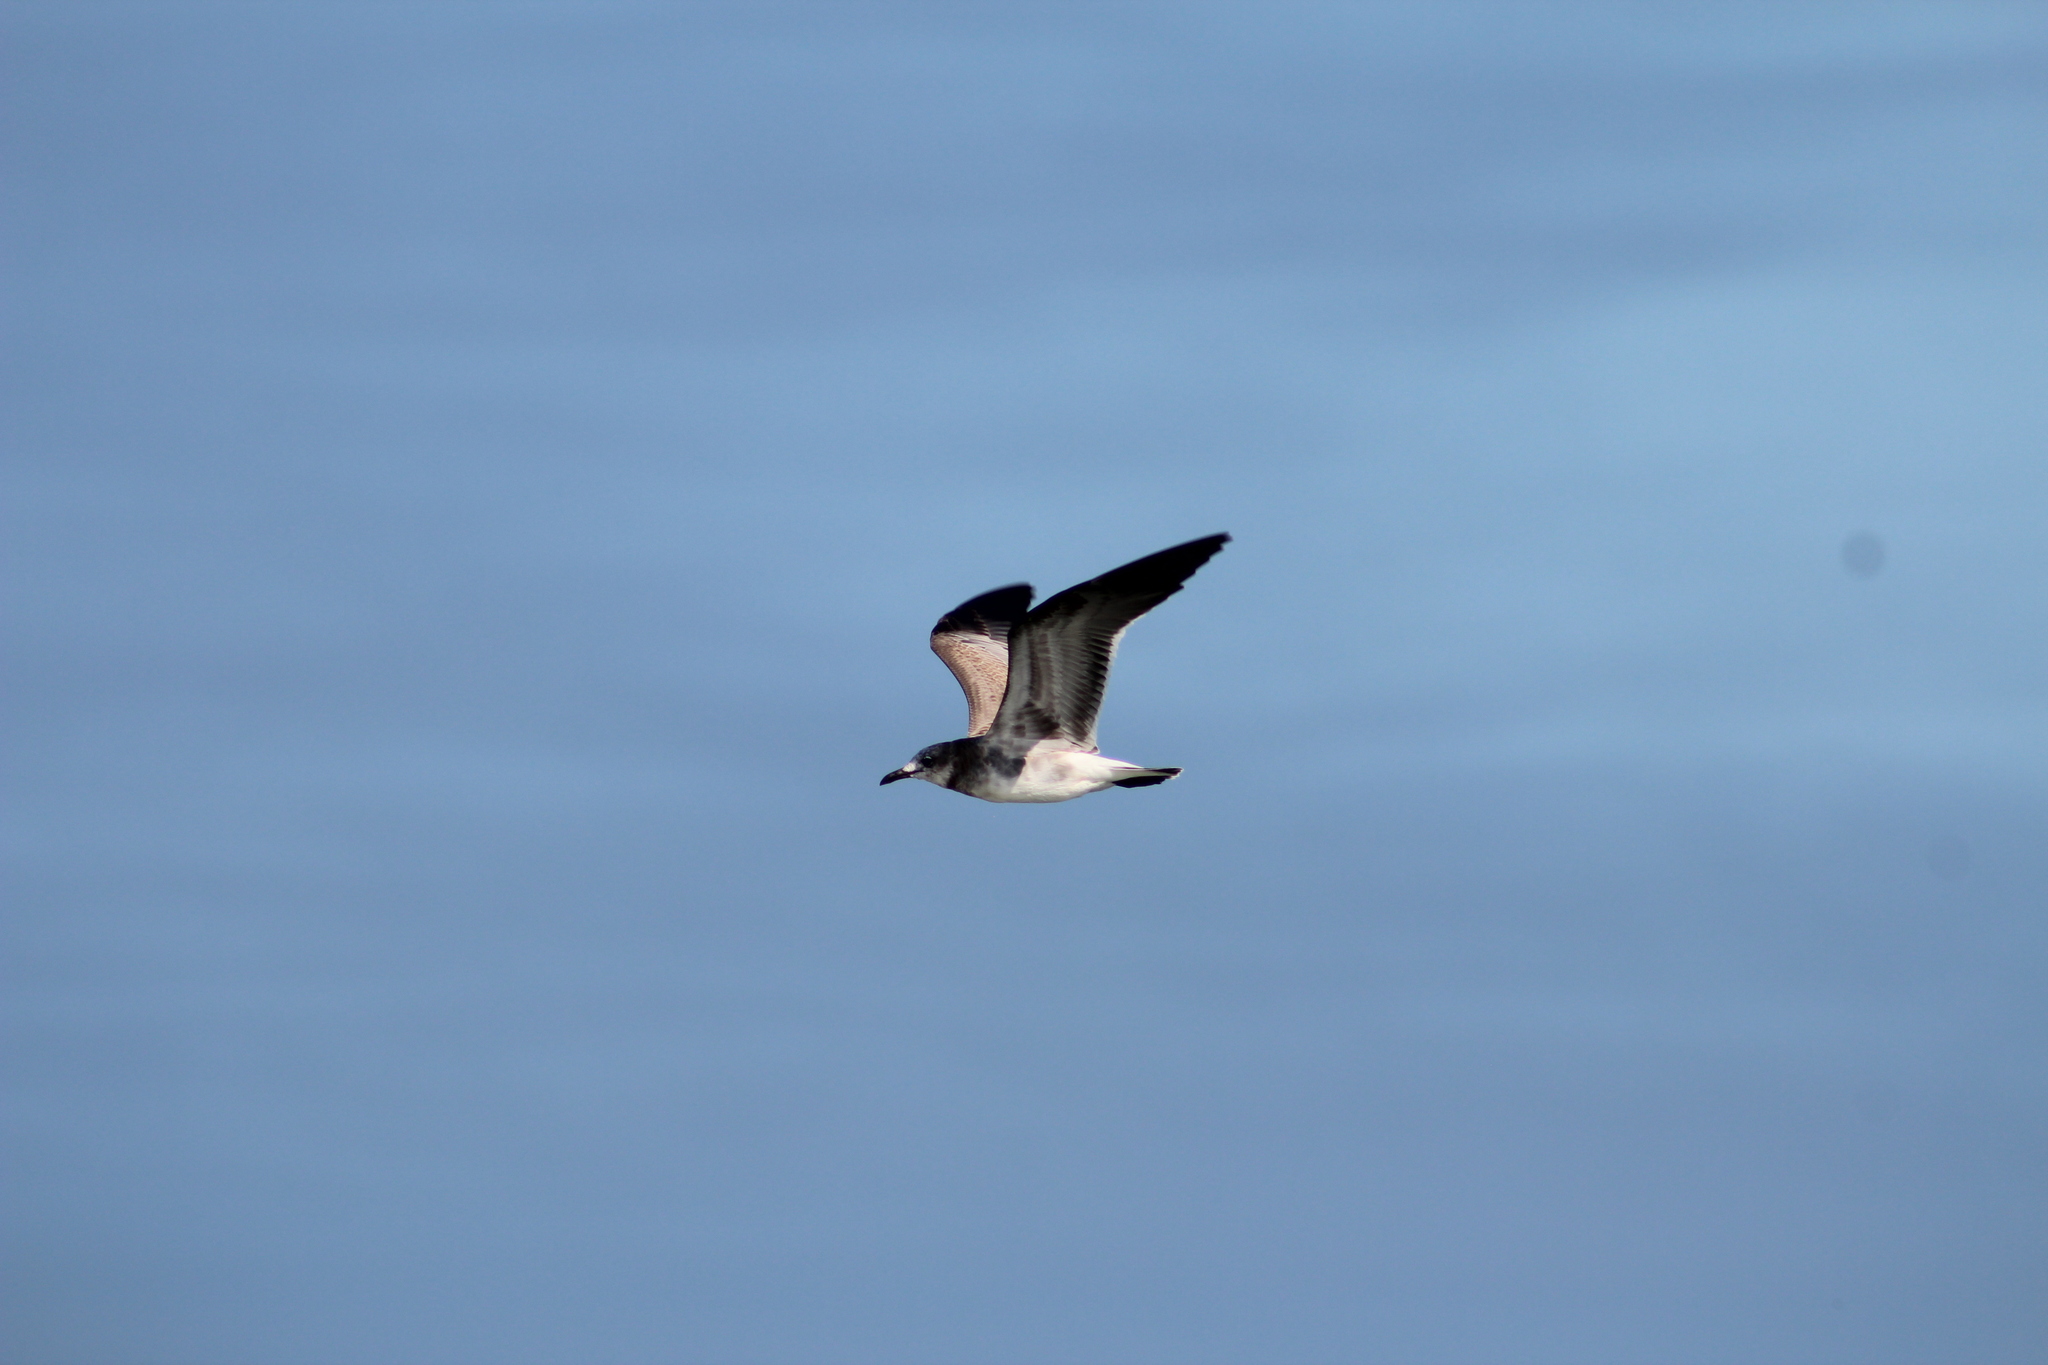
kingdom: Animalia
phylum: Chordata
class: Aves
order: Charadriiformes
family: Laridae
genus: Leucophaeus
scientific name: Leucophaeus atricilla
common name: Laughing gull
